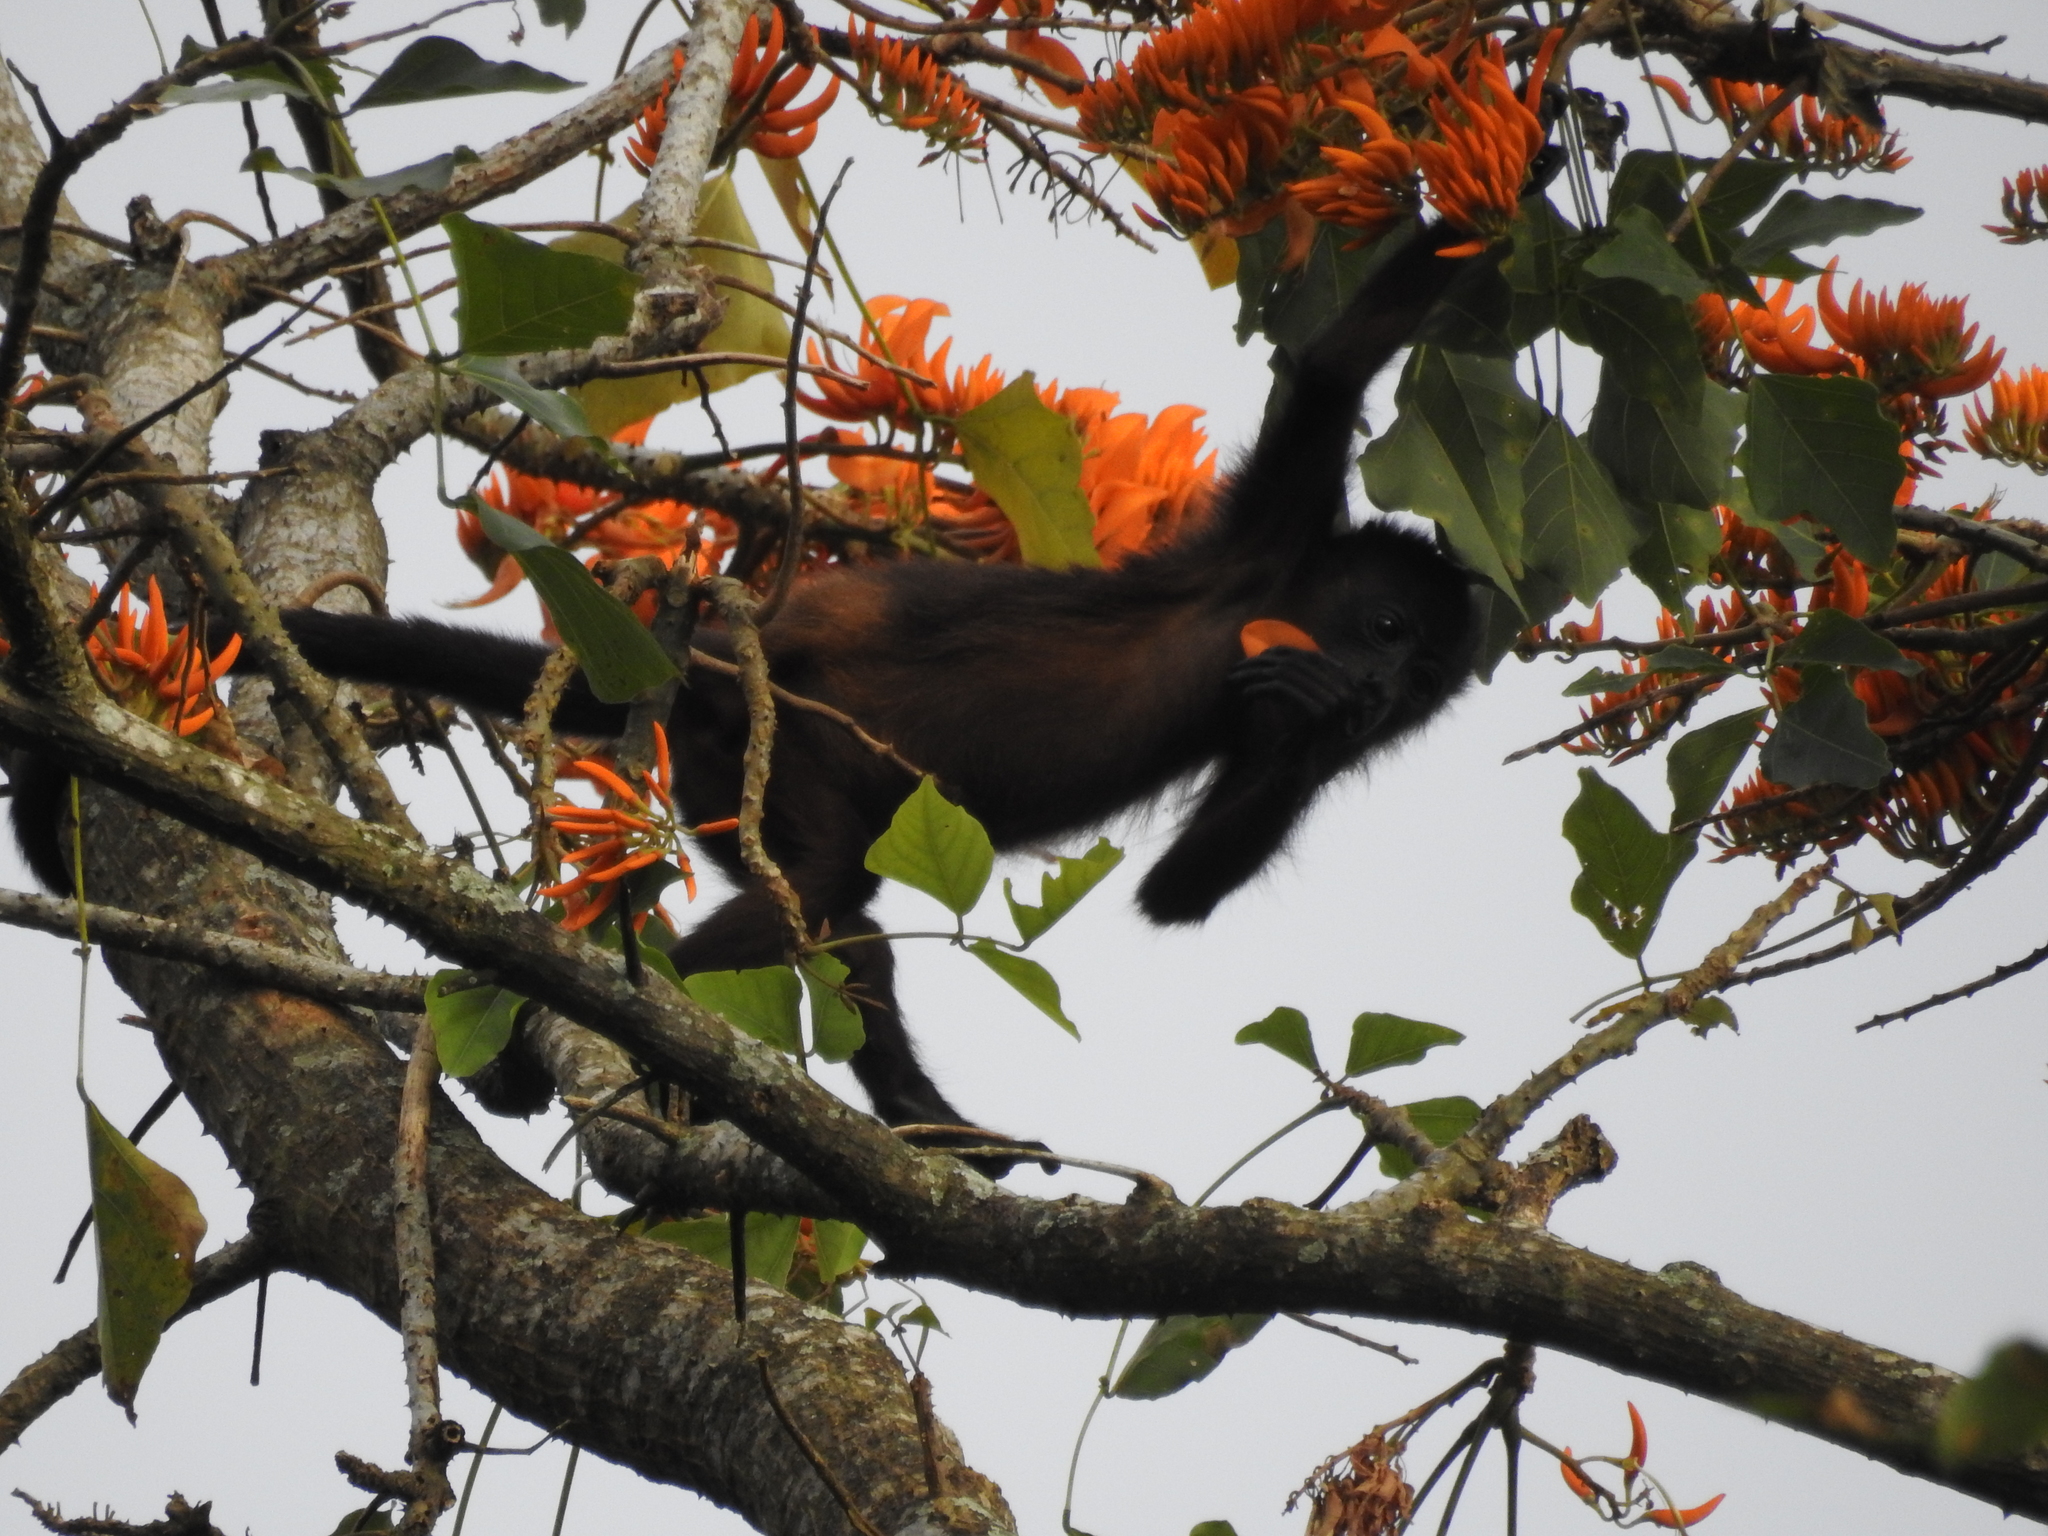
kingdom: Animalia
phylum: Chordata
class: Mammalia
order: Primates
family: Atelidae
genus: Ateles
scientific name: Ateles geoffroyi
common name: Black-handed spider monkey
